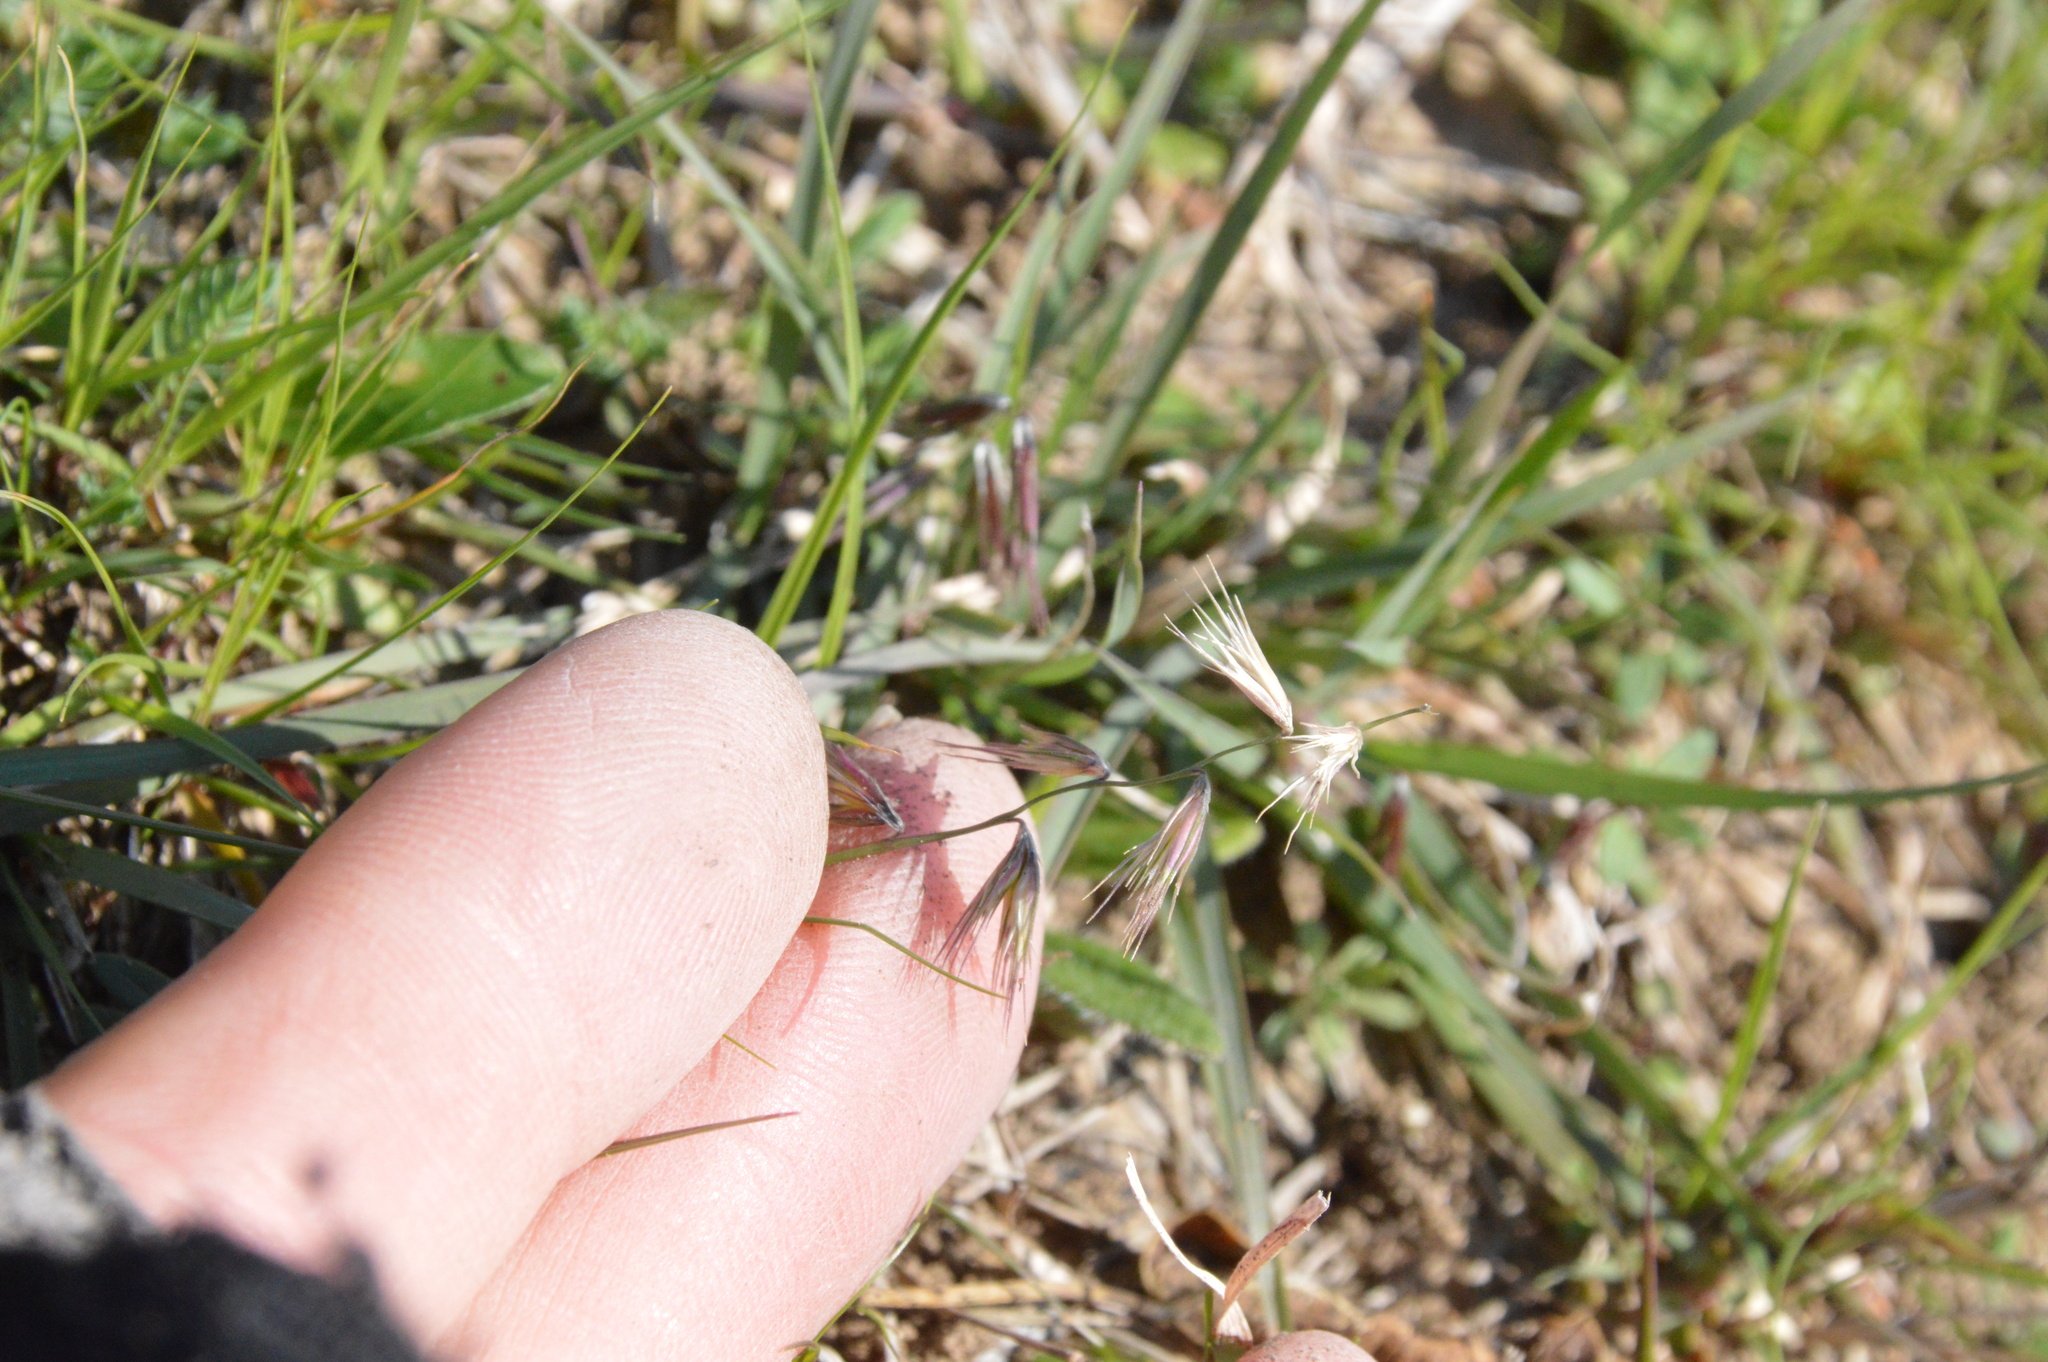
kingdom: Plantae
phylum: Tracheophyta
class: Liliopsida
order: Poales
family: Poaceae
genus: Bouteloua
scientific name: Bouteloua rigidiseta
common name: Texas grama
